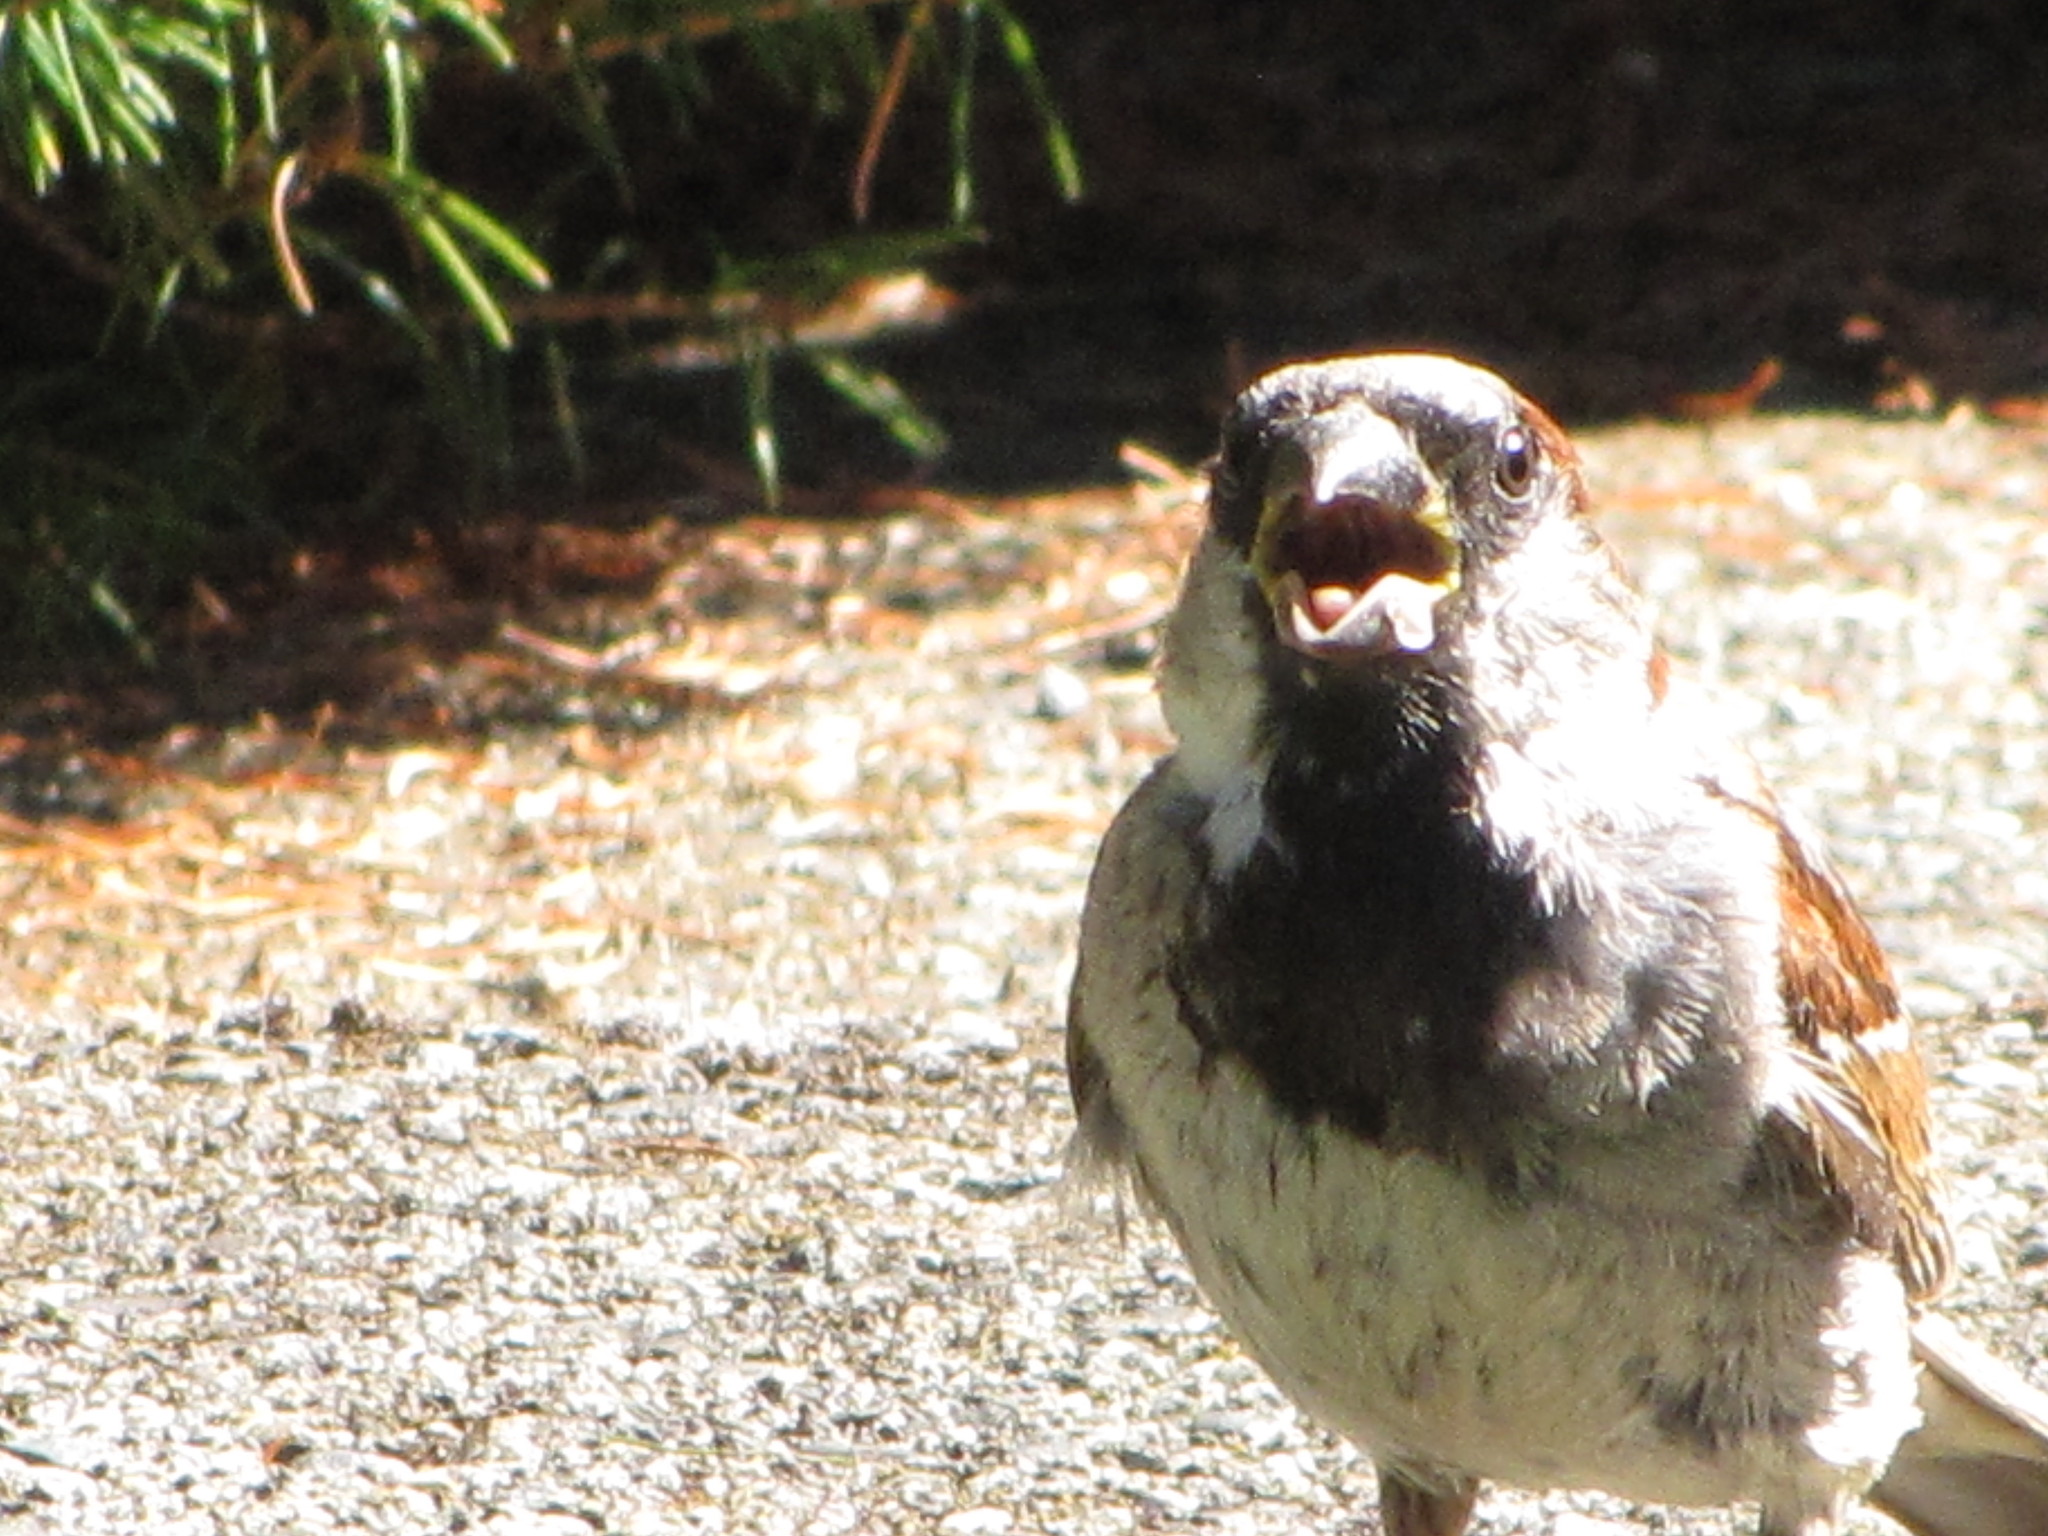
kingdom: Animalia
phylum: Chordata
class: Aves
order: Passeriformes
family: Passeridae
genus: Passer
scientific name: Passer domesticus
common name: House sparrow
